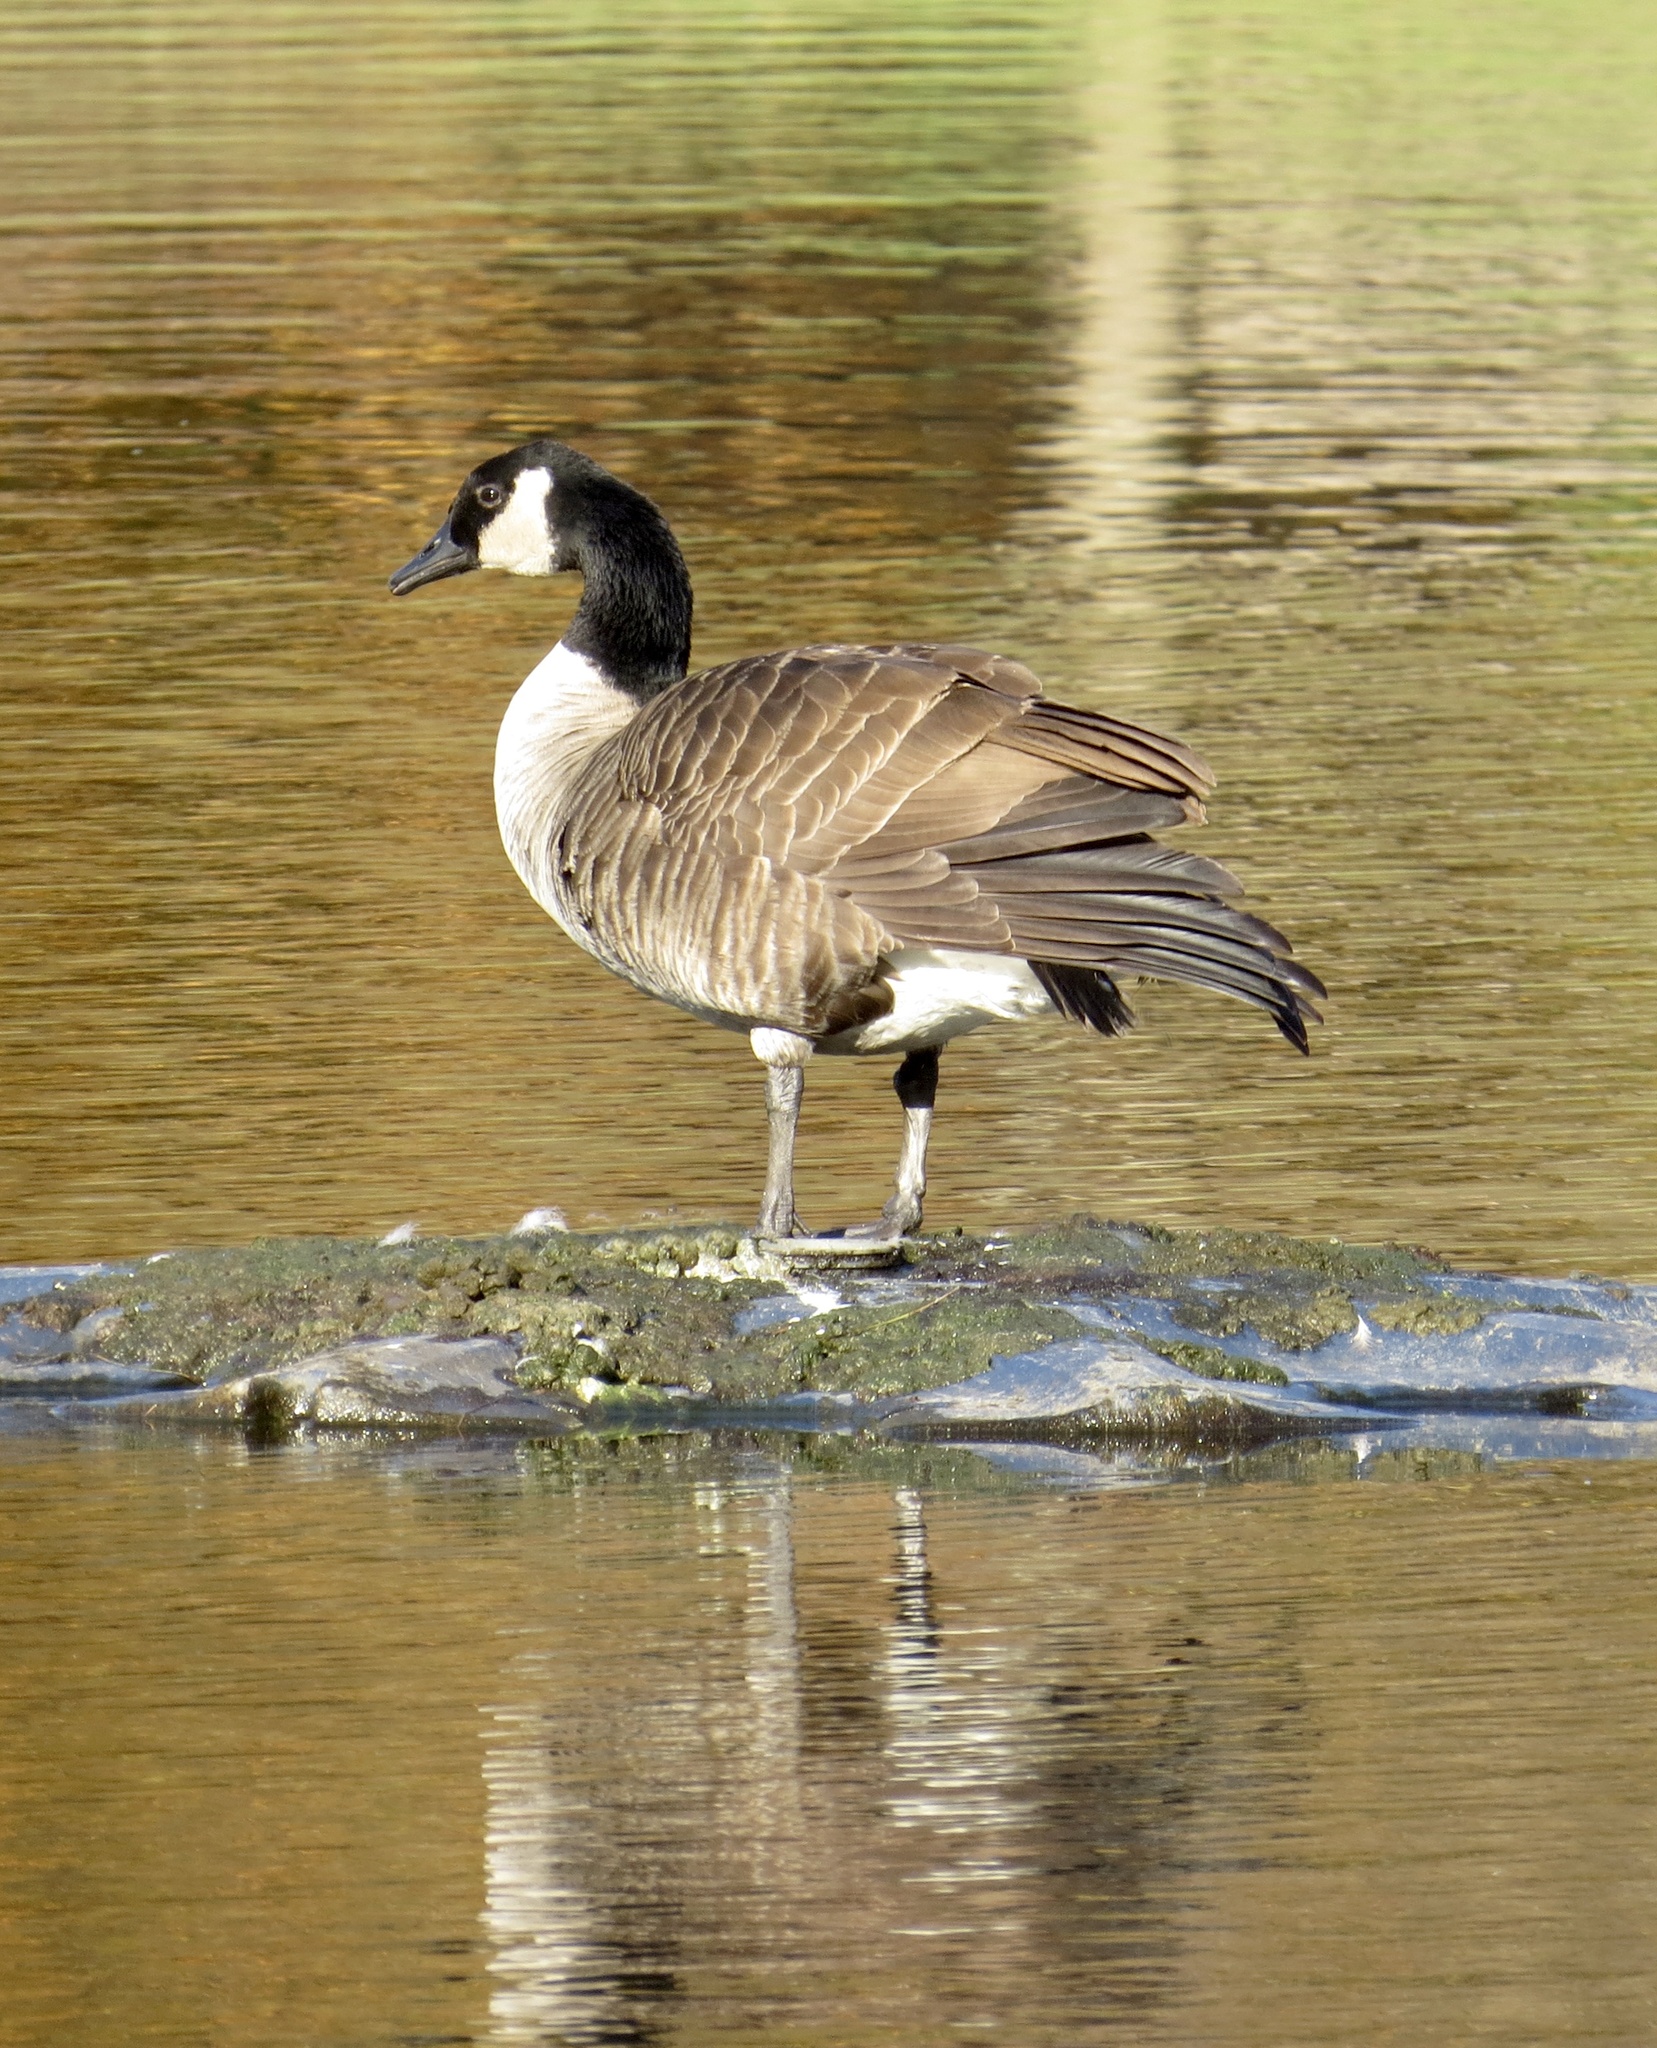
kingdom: Animalia
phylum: Chordata
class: Aves
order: Anseriformes
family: Anatidae
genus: Branta
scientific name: Branta canadensis
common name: Canada goose
